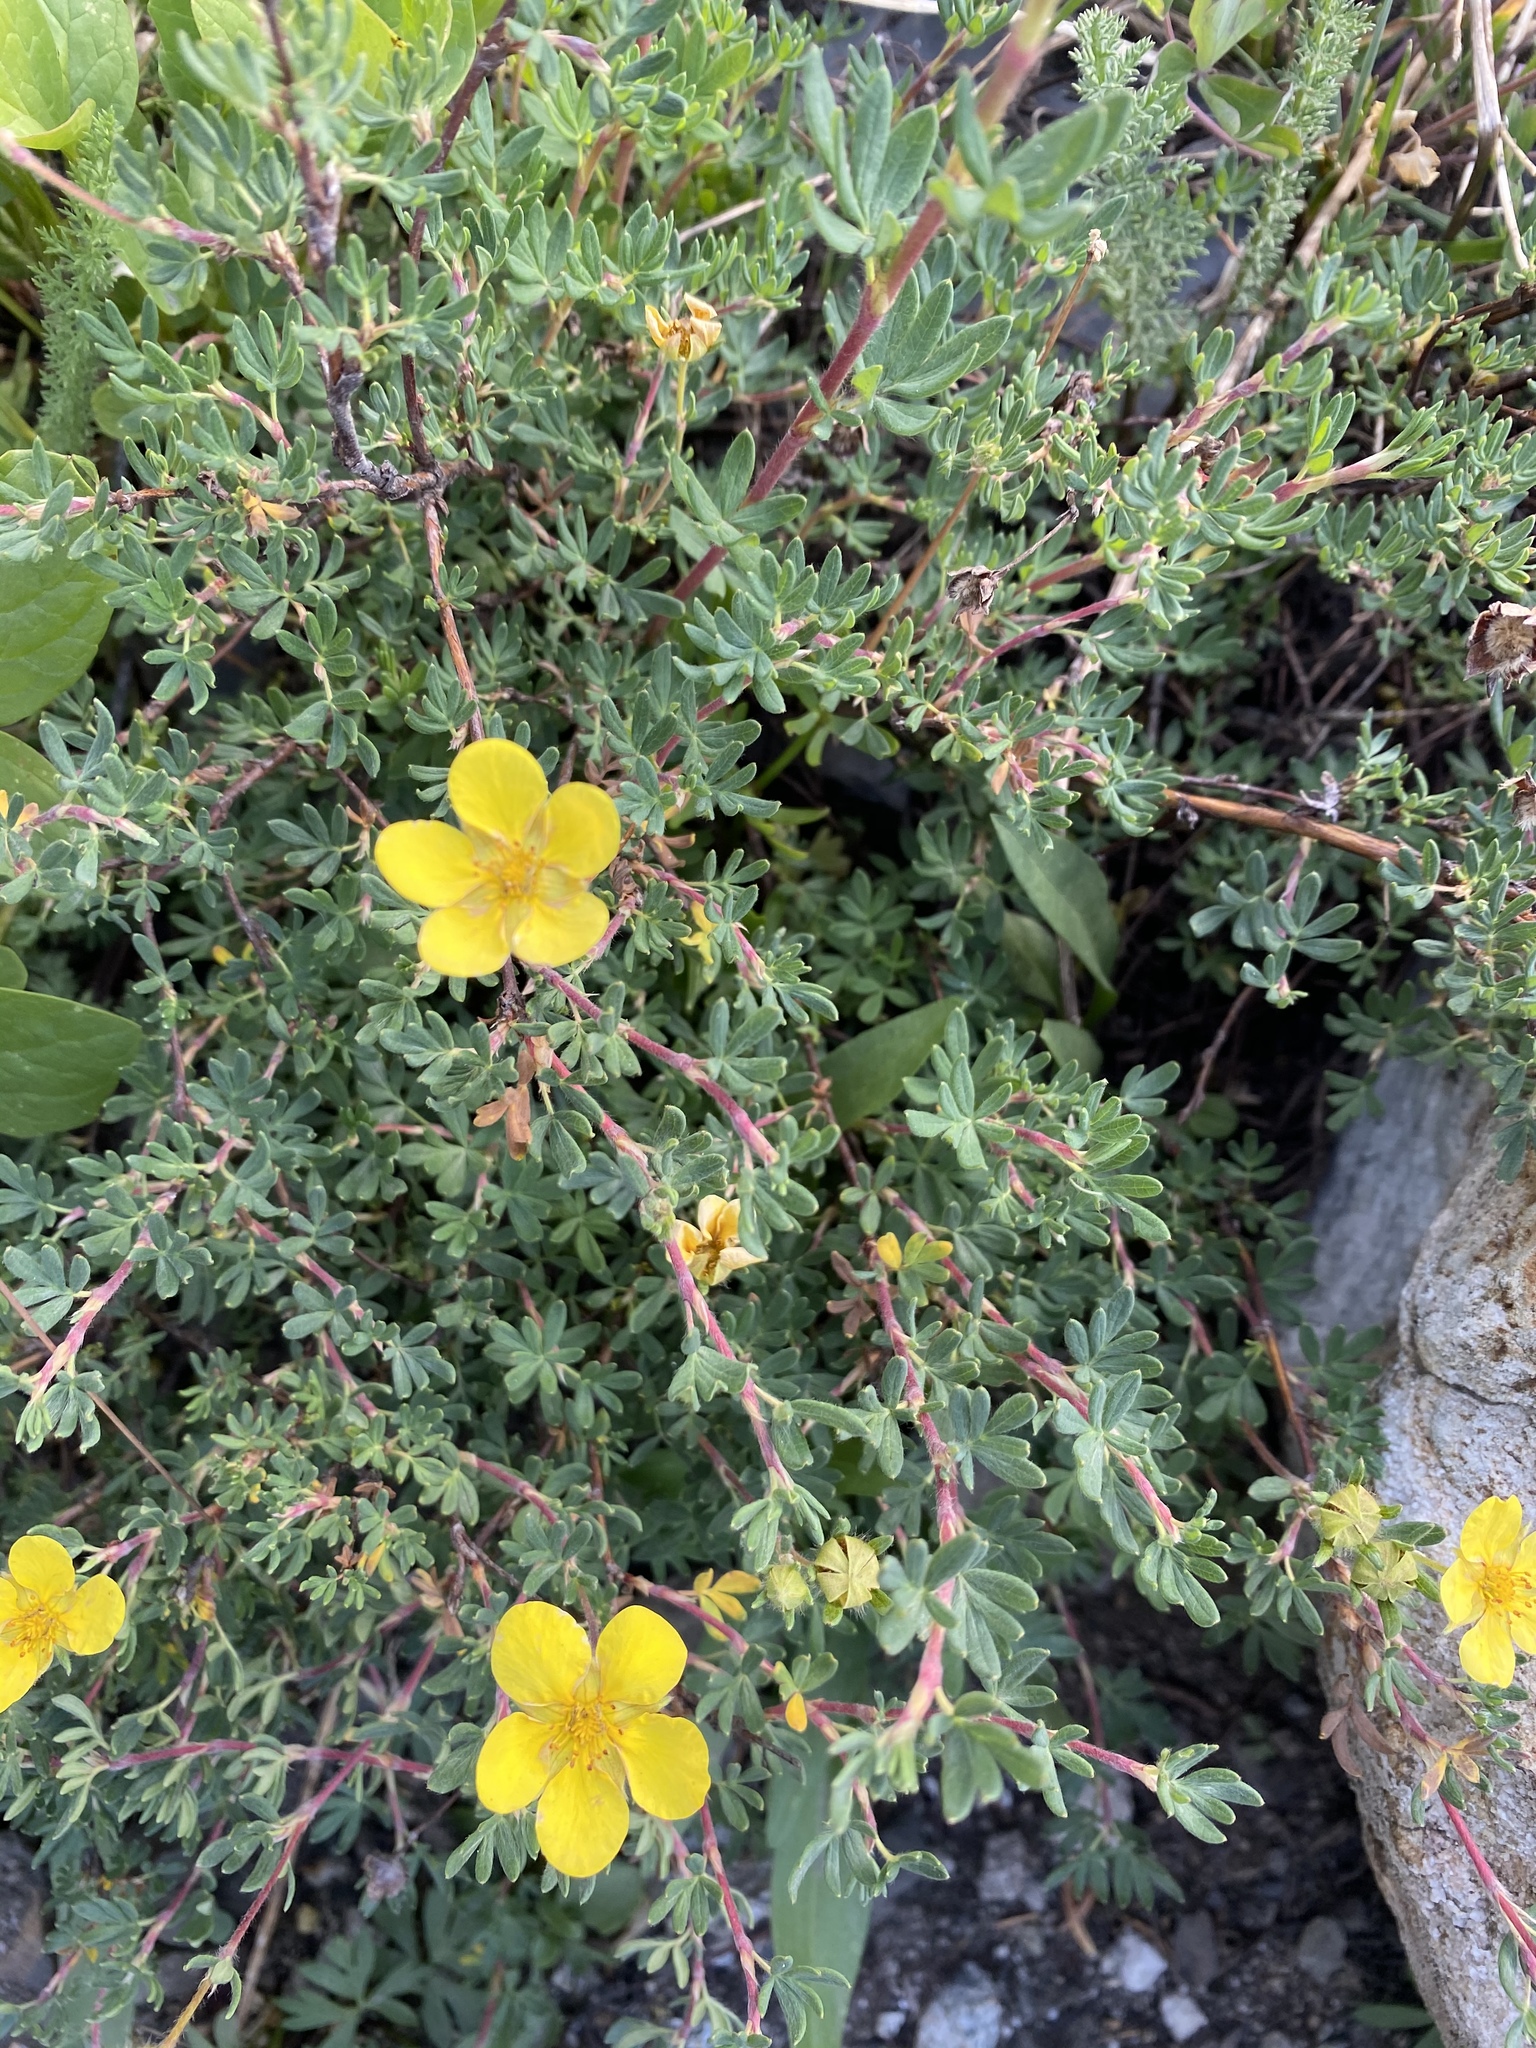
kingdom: Plantae
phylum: Tracheophyta
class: Magnoliopsida
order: Rosales
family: Rosaceae
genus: Dasiphora
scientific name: Dasiphora fruticosa
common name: Shrubby cinquefoil
